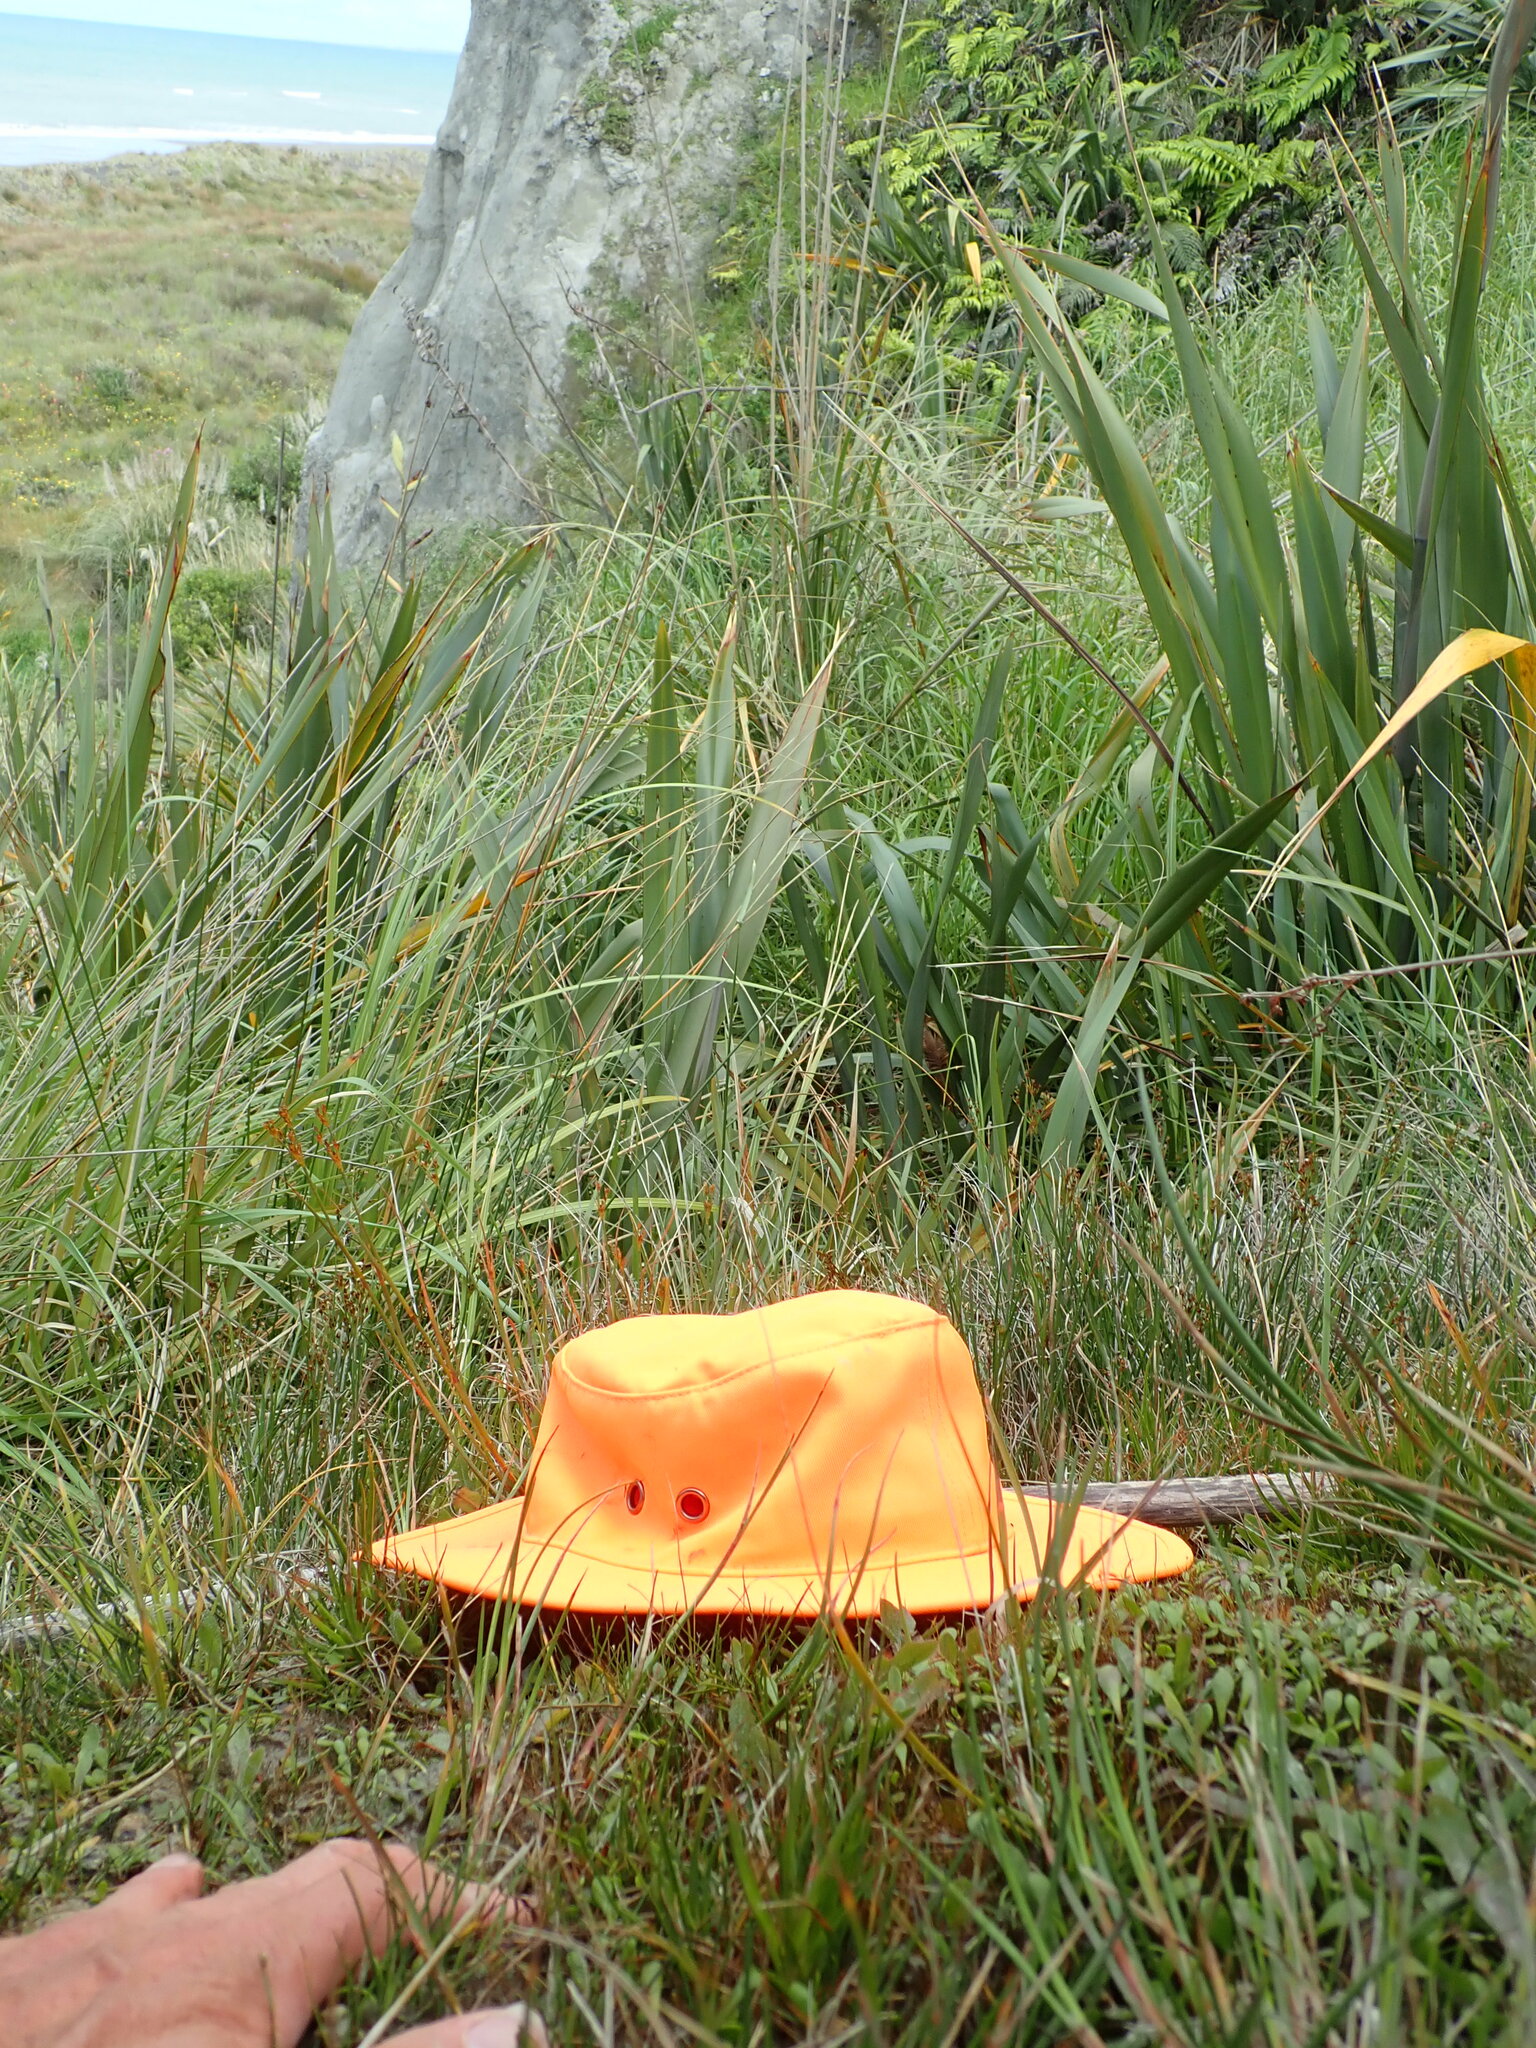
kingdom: Plantae
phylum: Tracheophyta
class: Liliopsida
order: Poales
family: Juncaceae
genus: Juncus
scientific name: Juncus caespiticius
